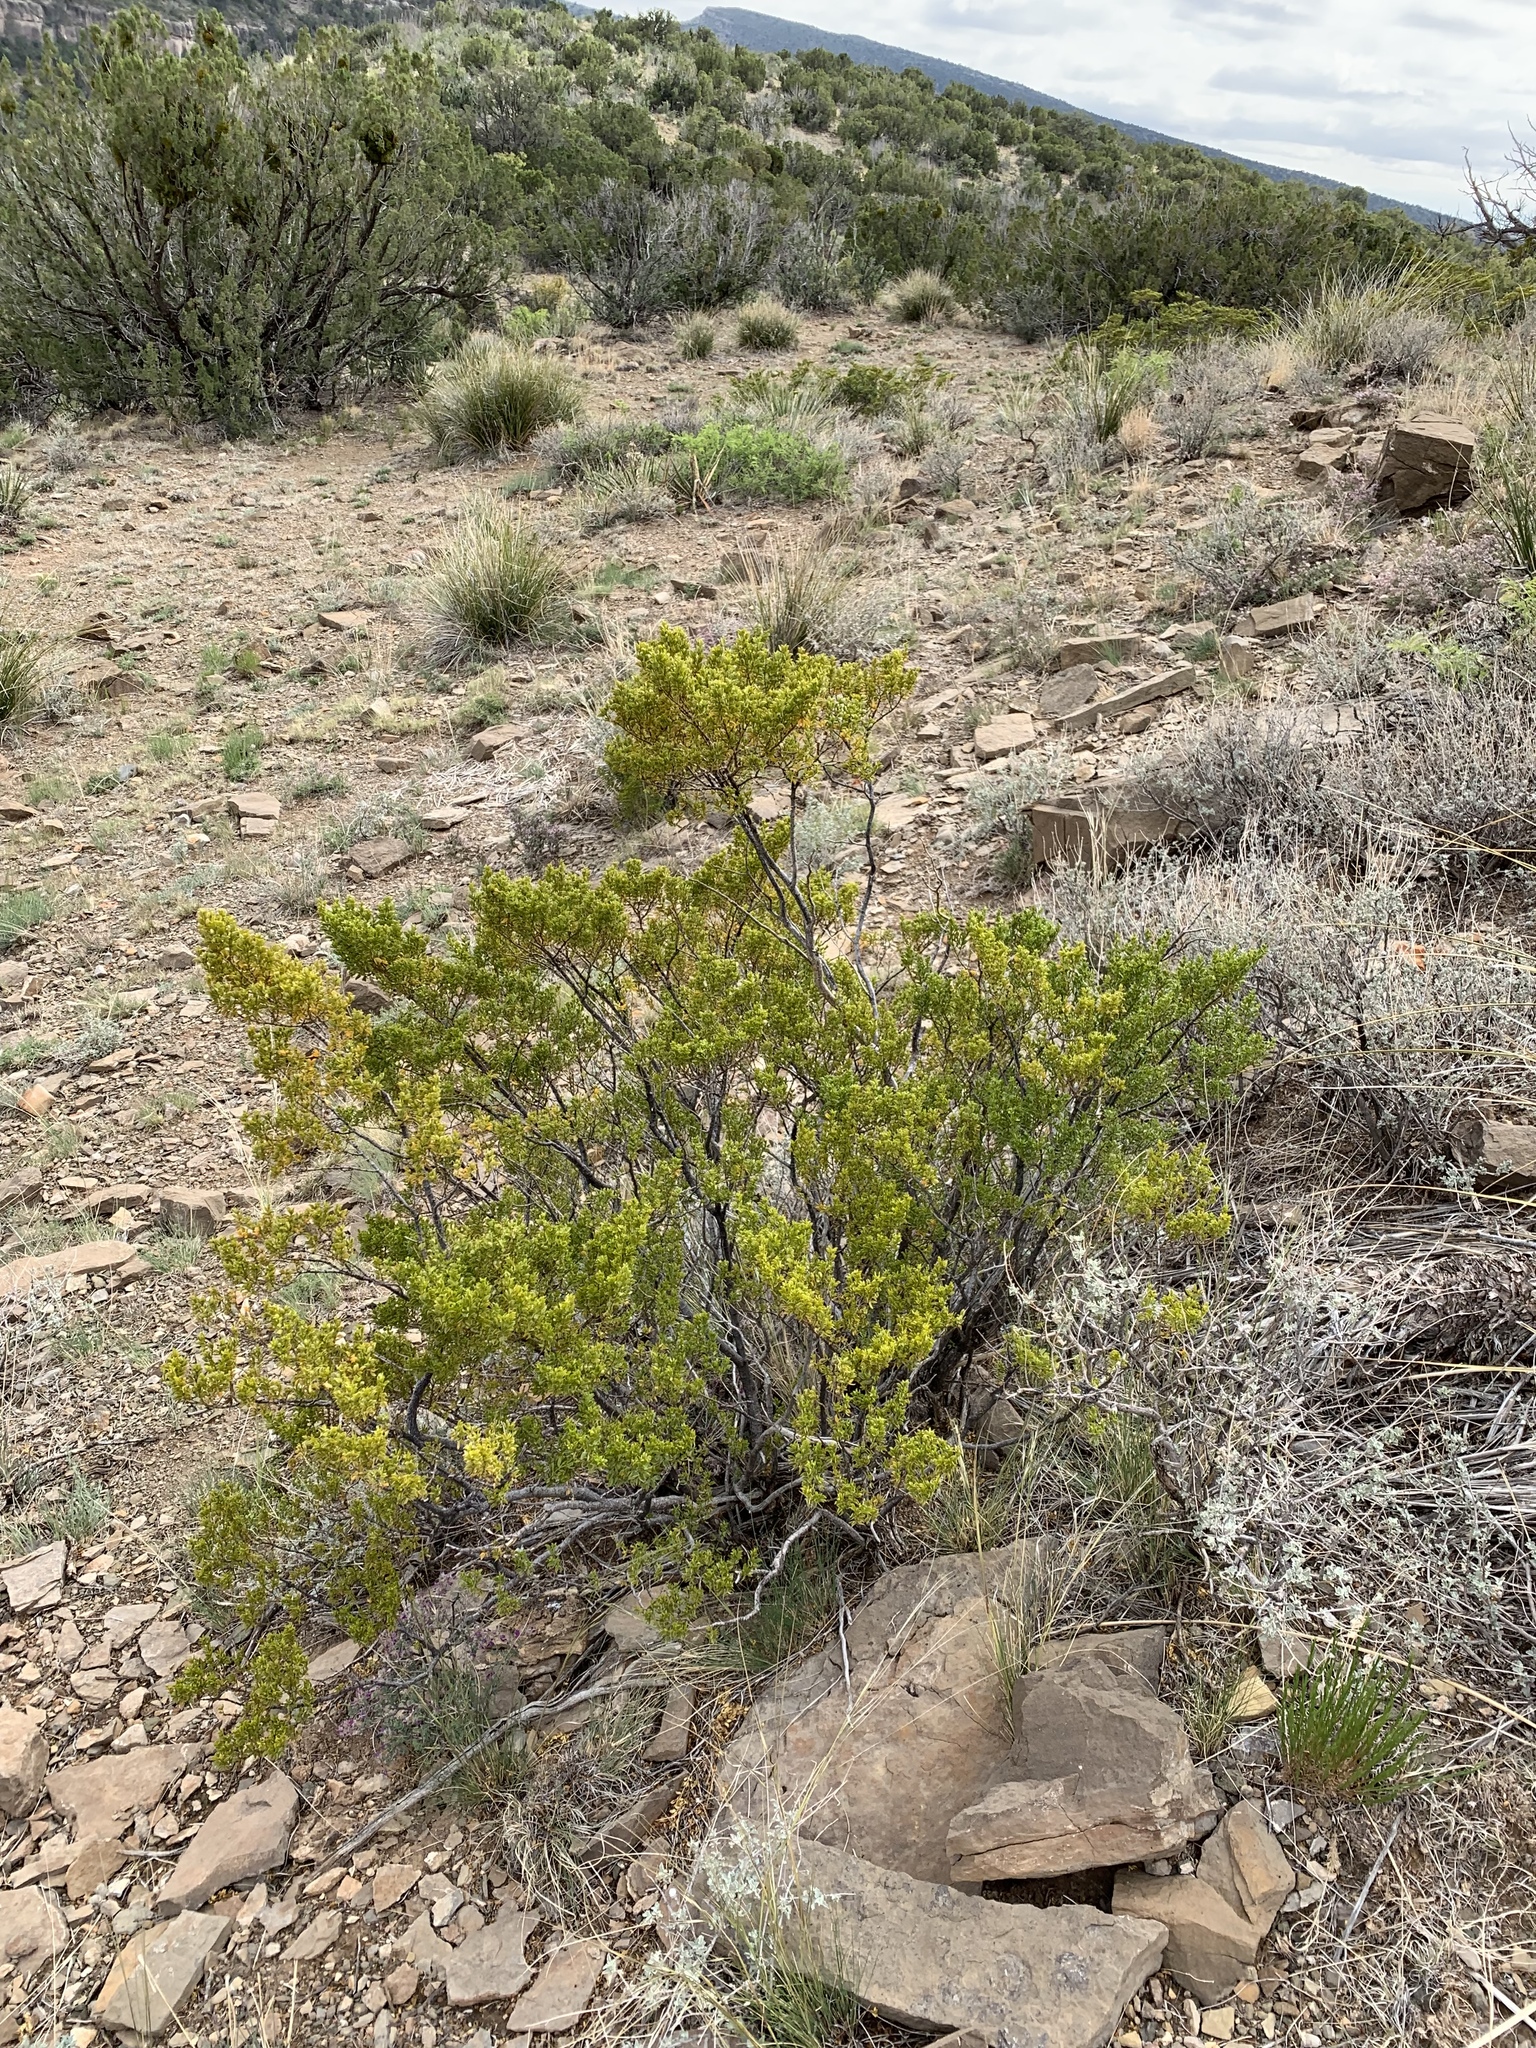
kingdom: Plantae
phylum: Tracheophyta
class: Magnoliopsida
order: Zygophyllales
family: Zygophyllaceae
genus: Larrea
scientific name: Larrea tridentata
